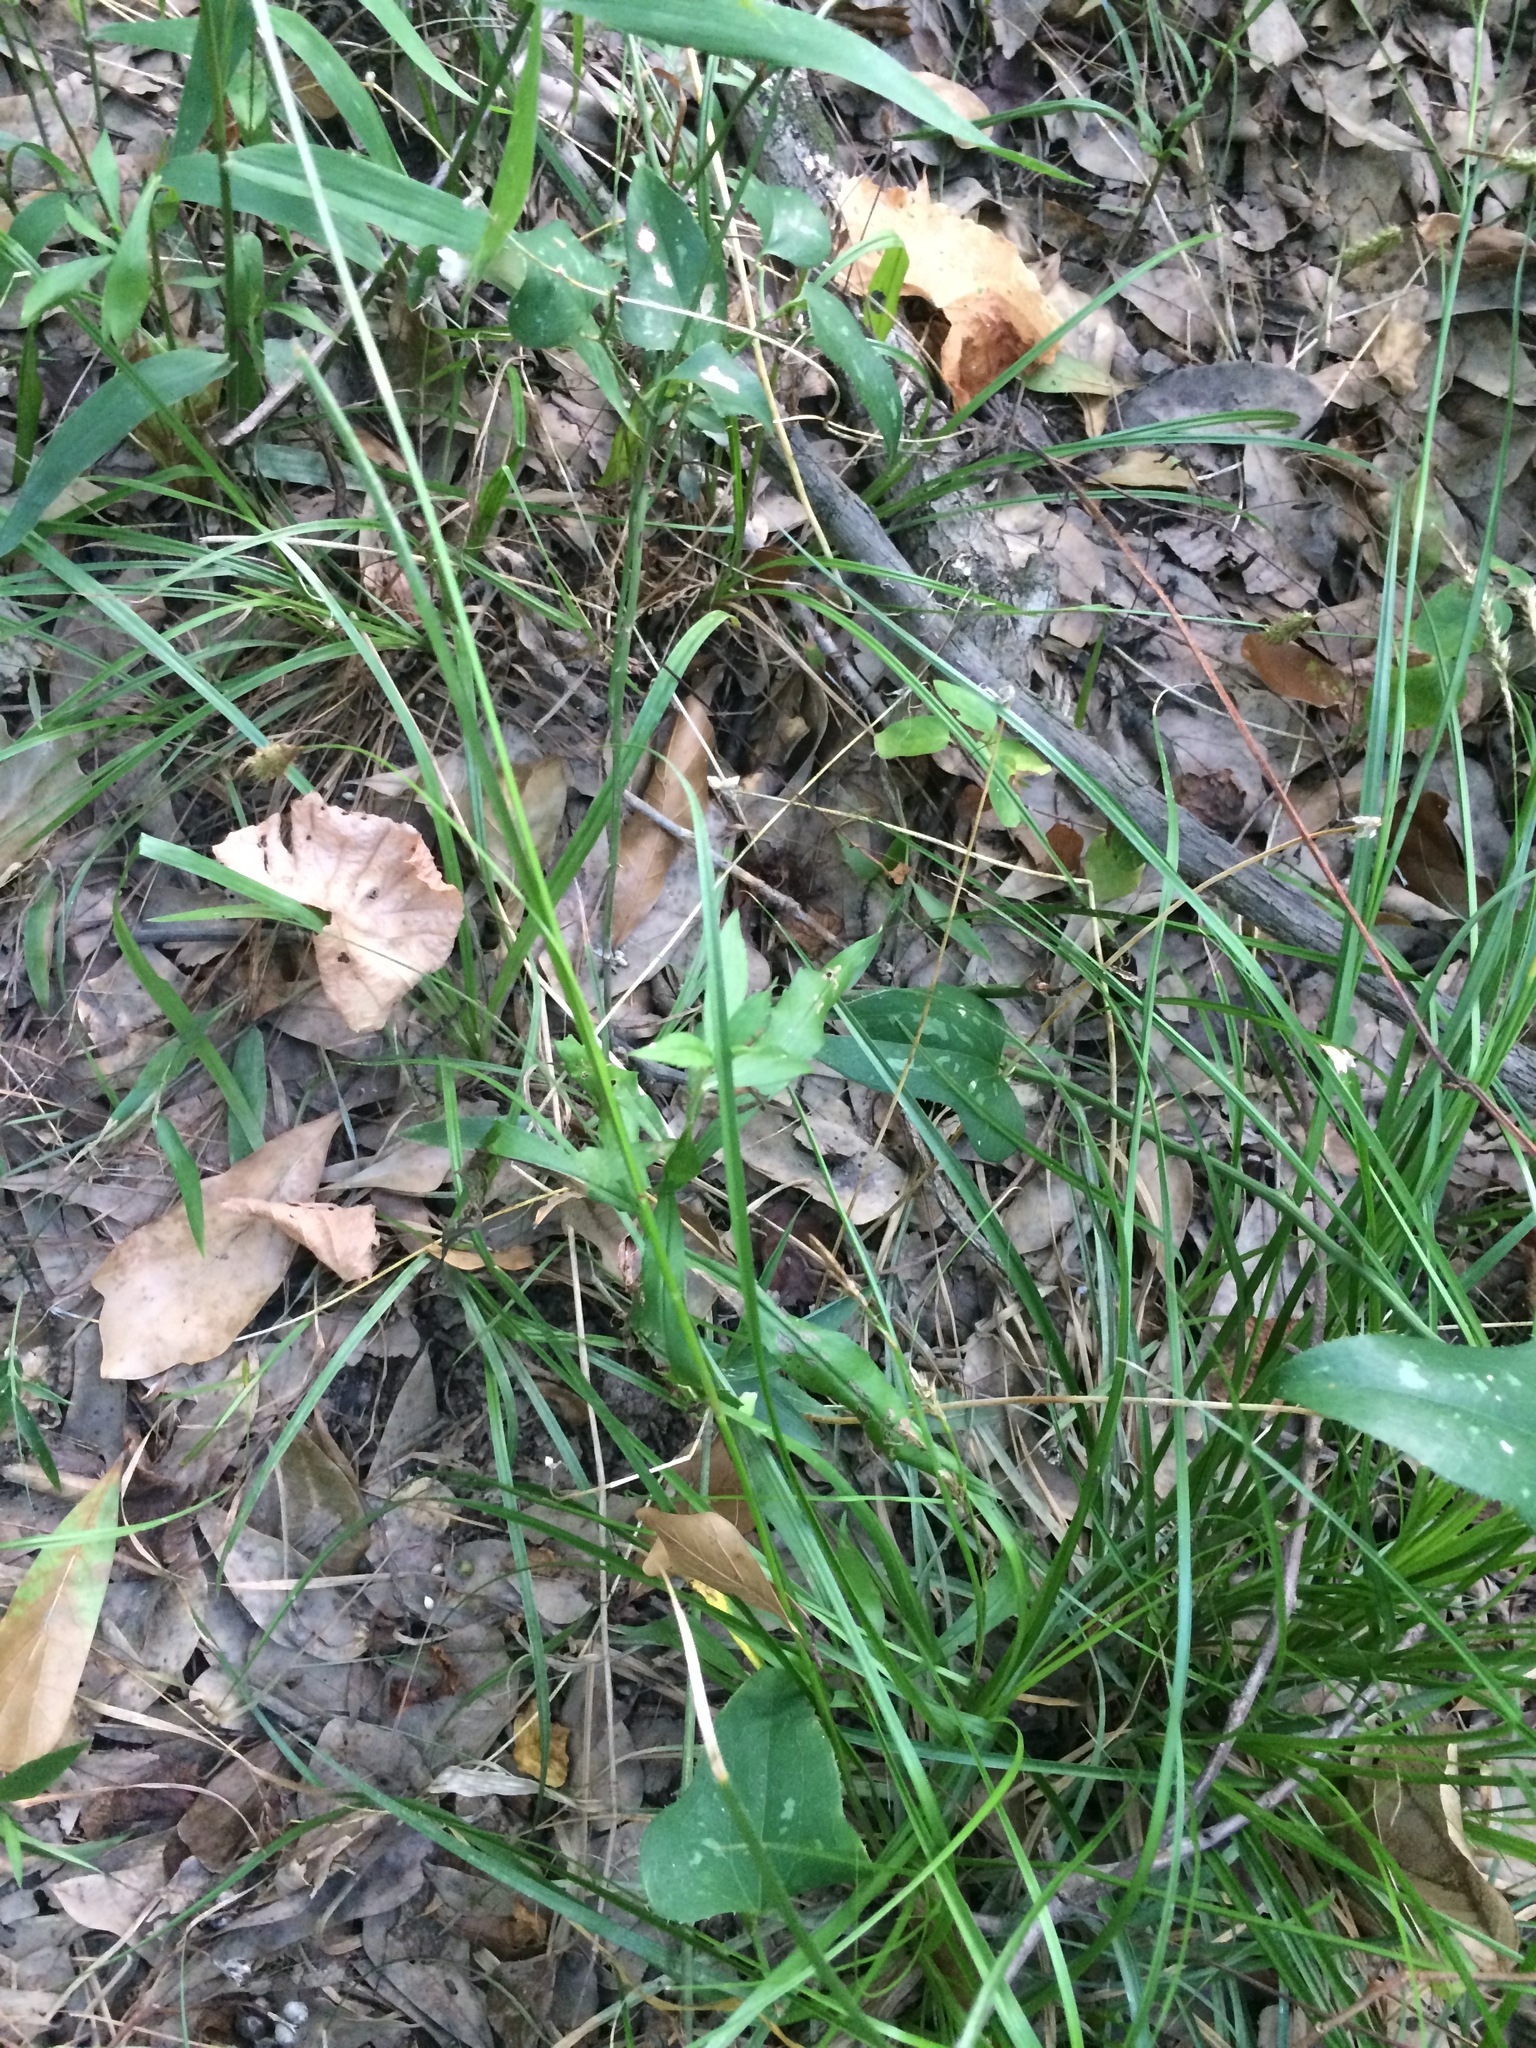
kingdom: Plantae
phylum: Tracheophyta
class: Liliopsida
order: Asparagales
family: Amaryllidaceae
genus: Allium
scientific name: Allium canadense
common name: Meadow garlic
